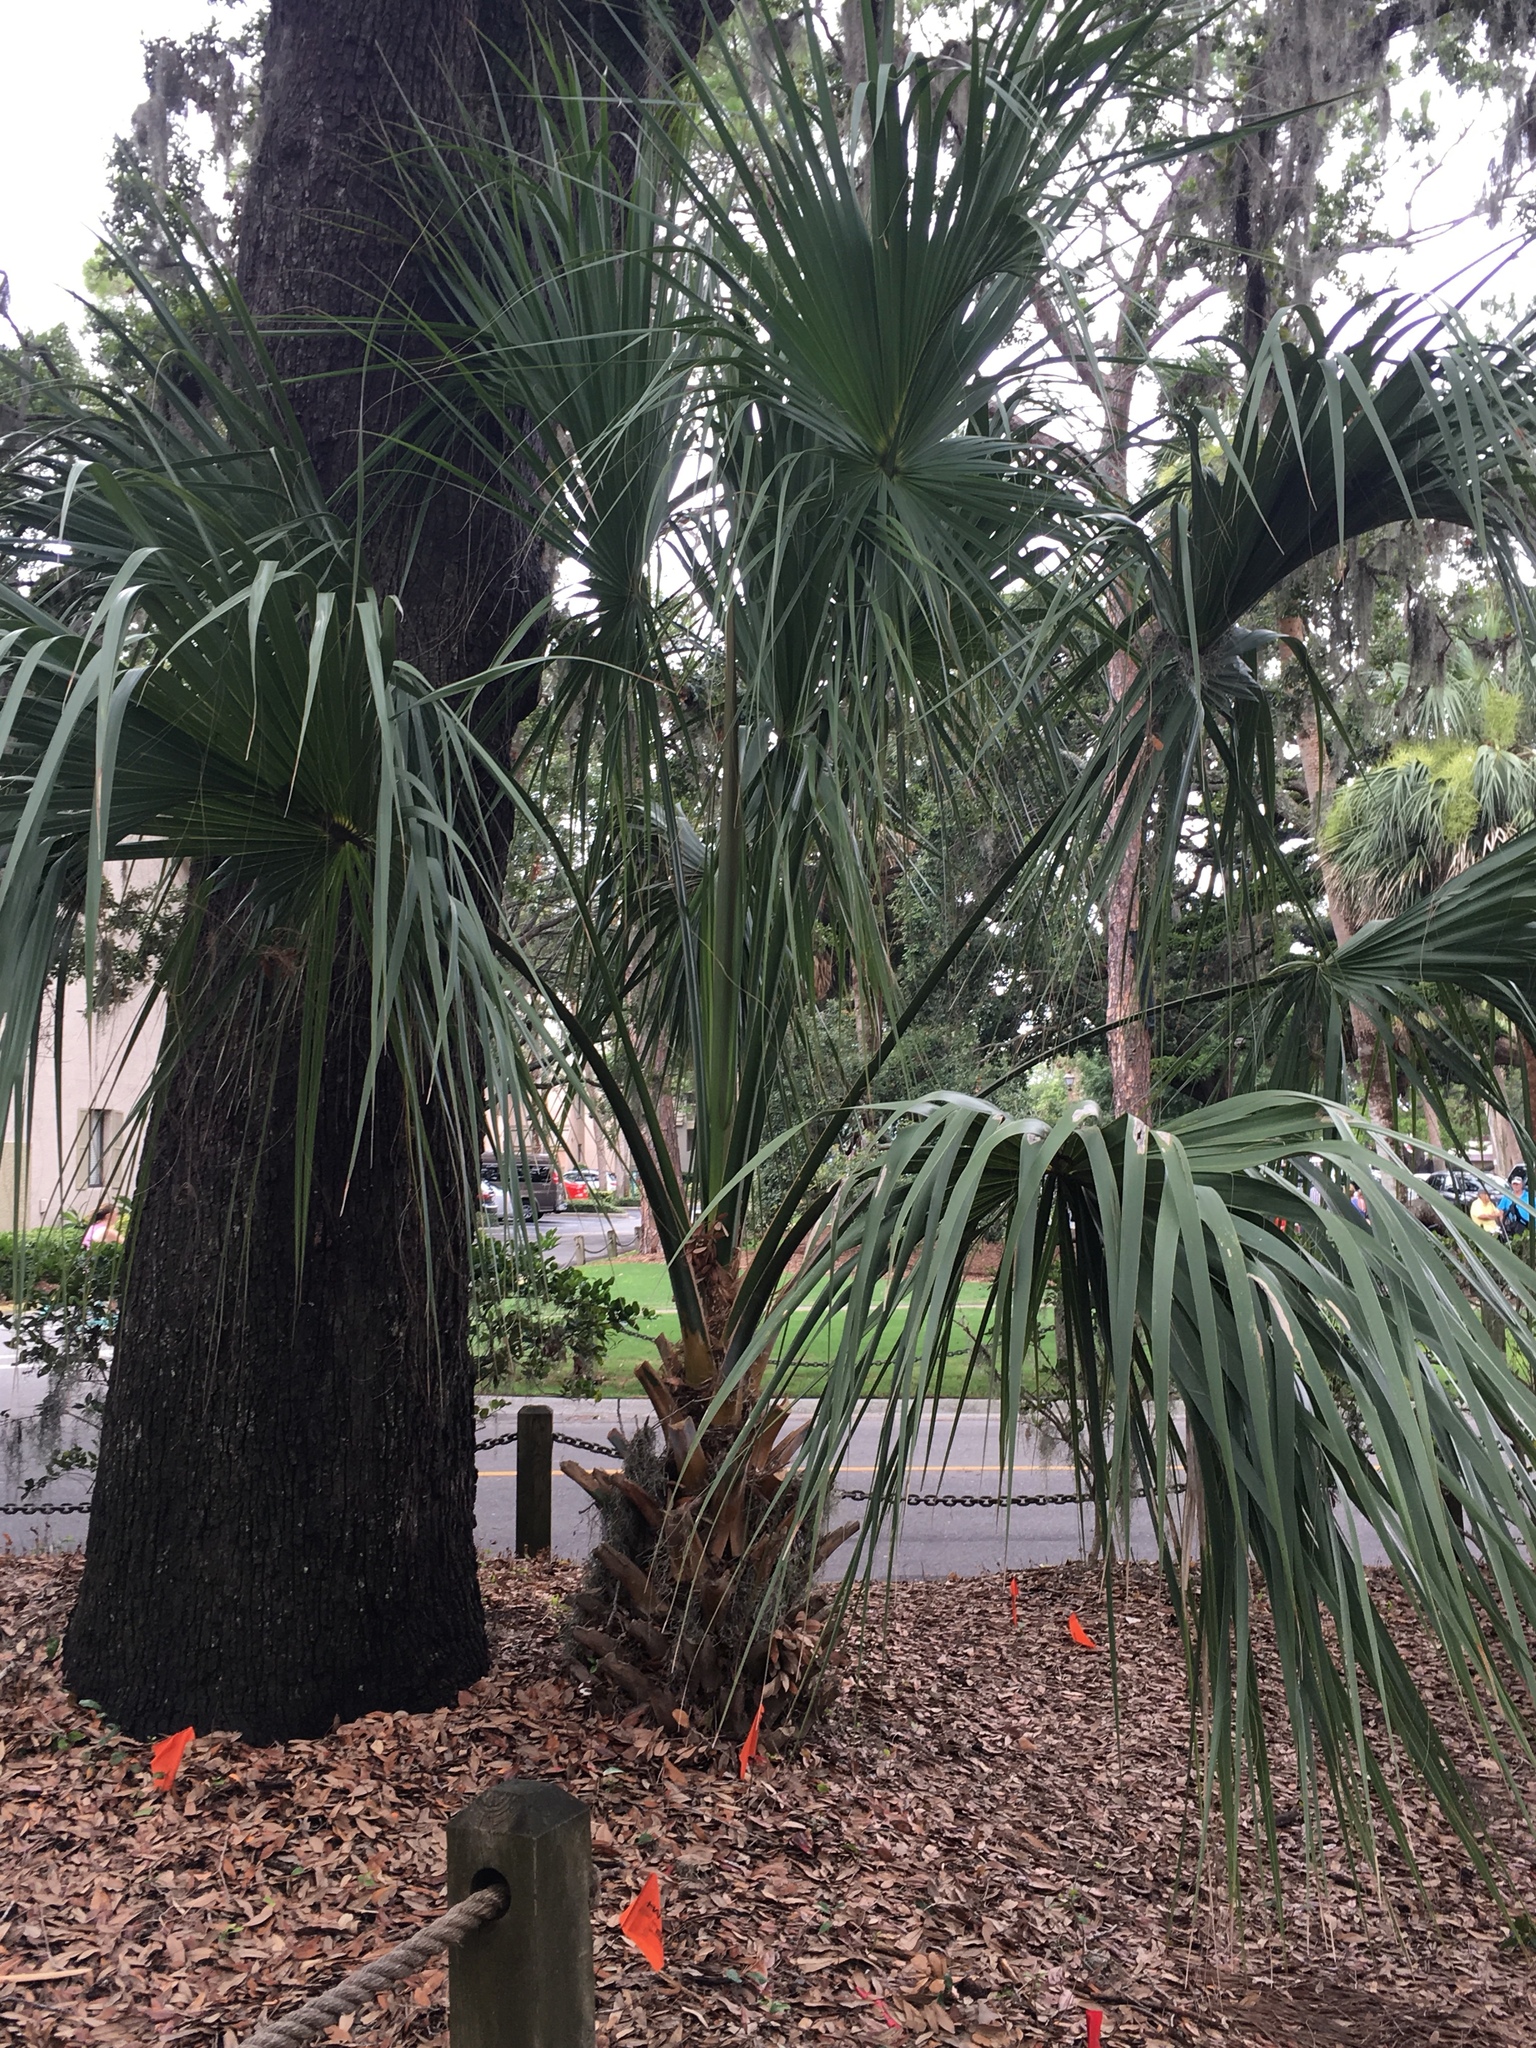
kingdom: Plantae
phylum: Tracheophyta
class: Liliopsida
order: Arecales
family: Arecaceae
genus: Sabal
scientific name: Sabal palmetto
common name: Blue palmetto
